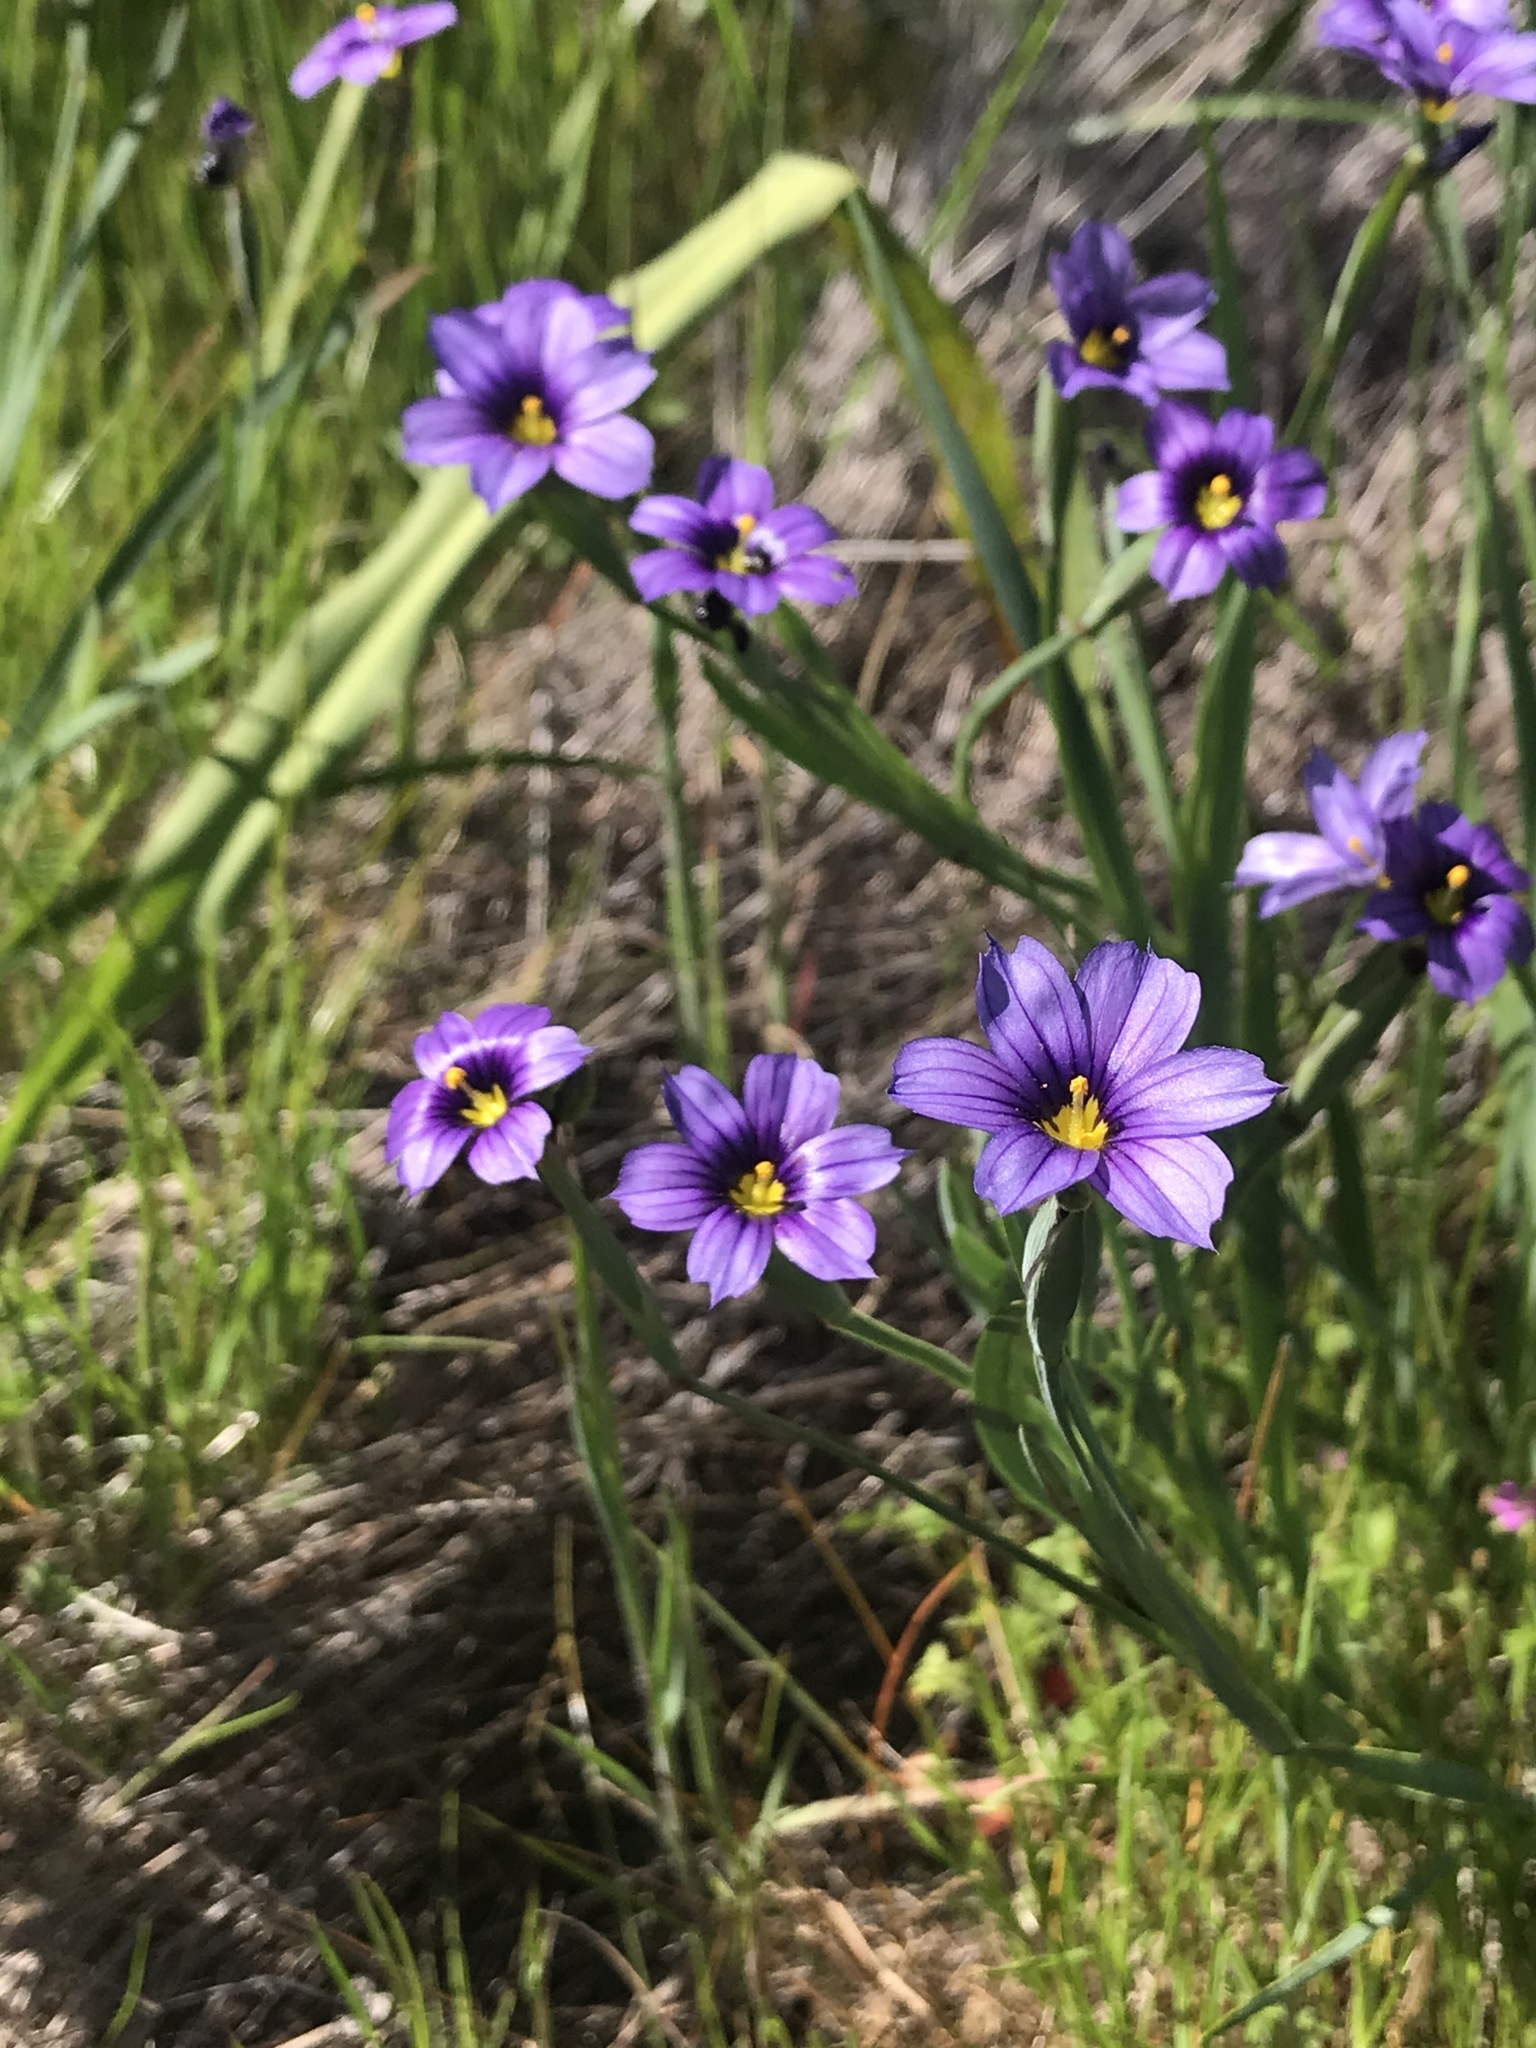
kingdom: Plantae
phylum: Tracheophyta
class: Liliopsida
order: Asparagales
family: Iridaceae
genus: Sisyrinchium
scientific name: Sisyrinchium bellum
